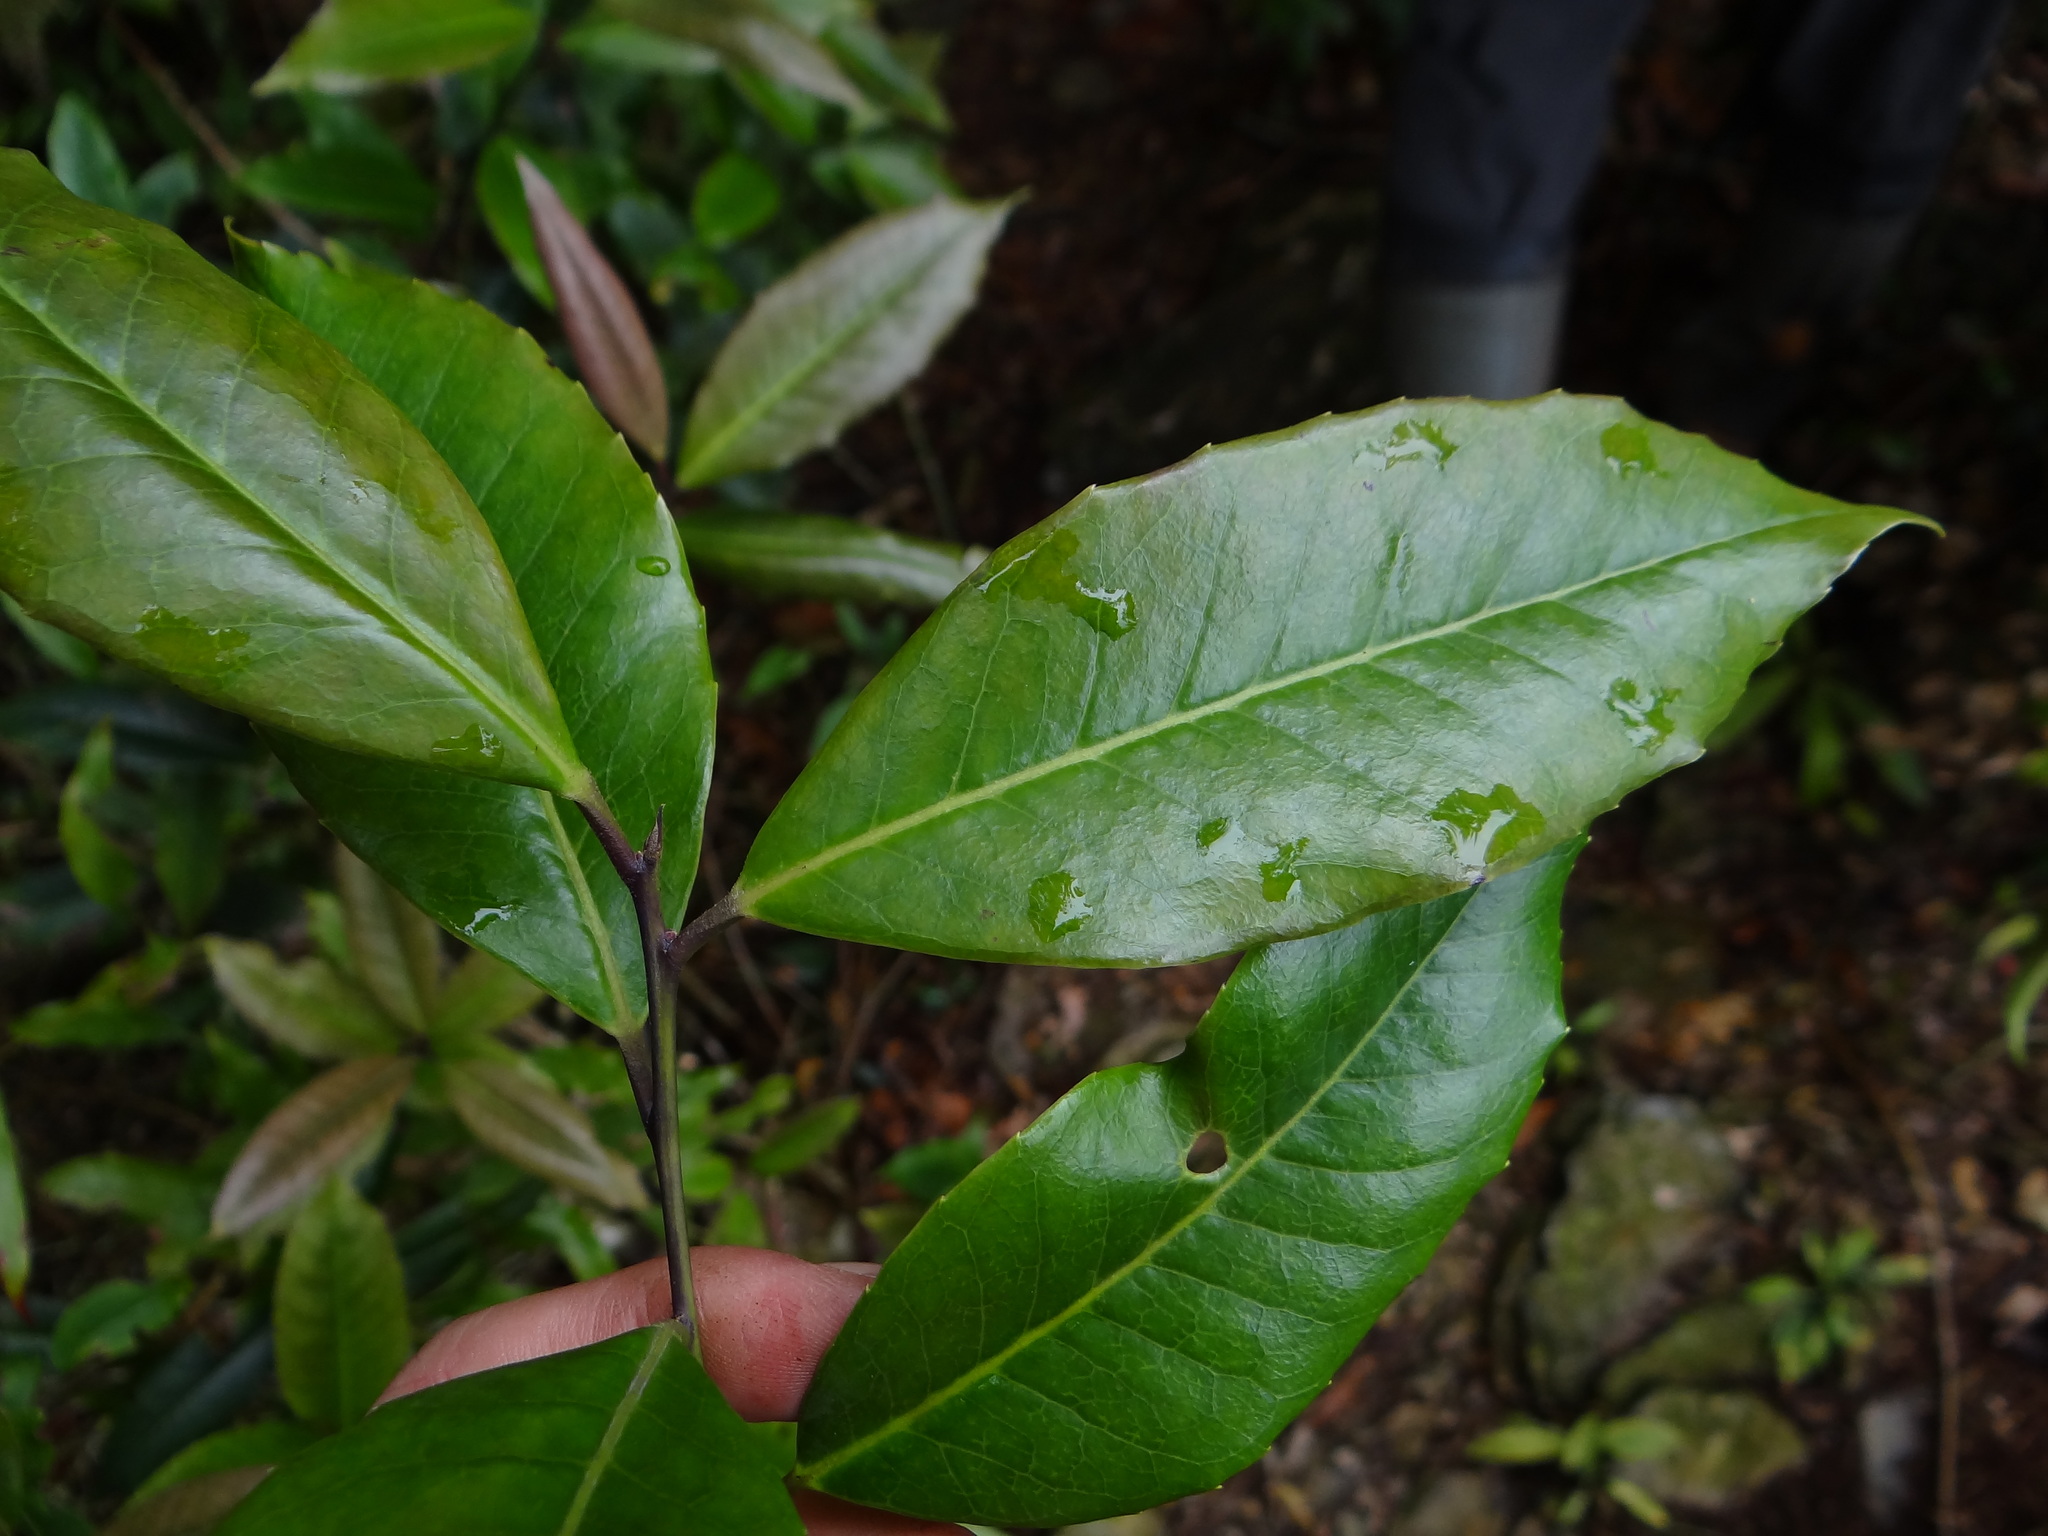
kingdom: Plantae
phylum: Tracheophyta
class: Magnoliopsida
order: Aquifoliales
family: Aquifoliaceae
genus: Ilex
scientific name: Ilex lonicerifolia
